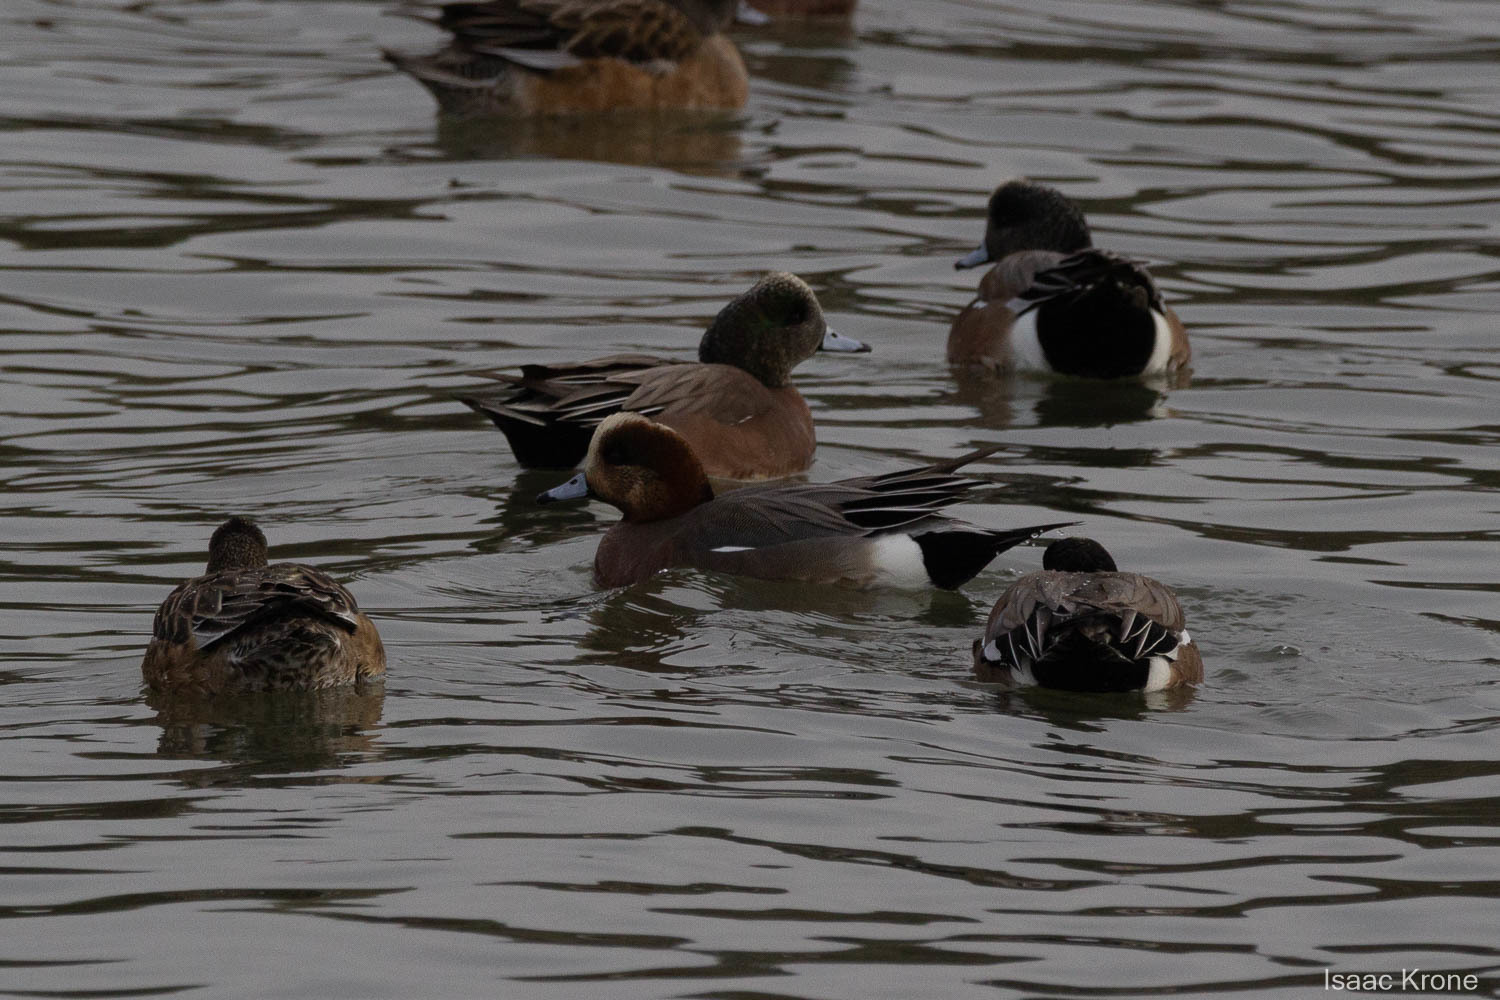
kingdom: Animalia
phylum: Chordata
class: Aves
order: Anseriformes
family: Anatidae
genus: Mareca
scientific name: Mareca penelope
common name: Eurasian wigeon
